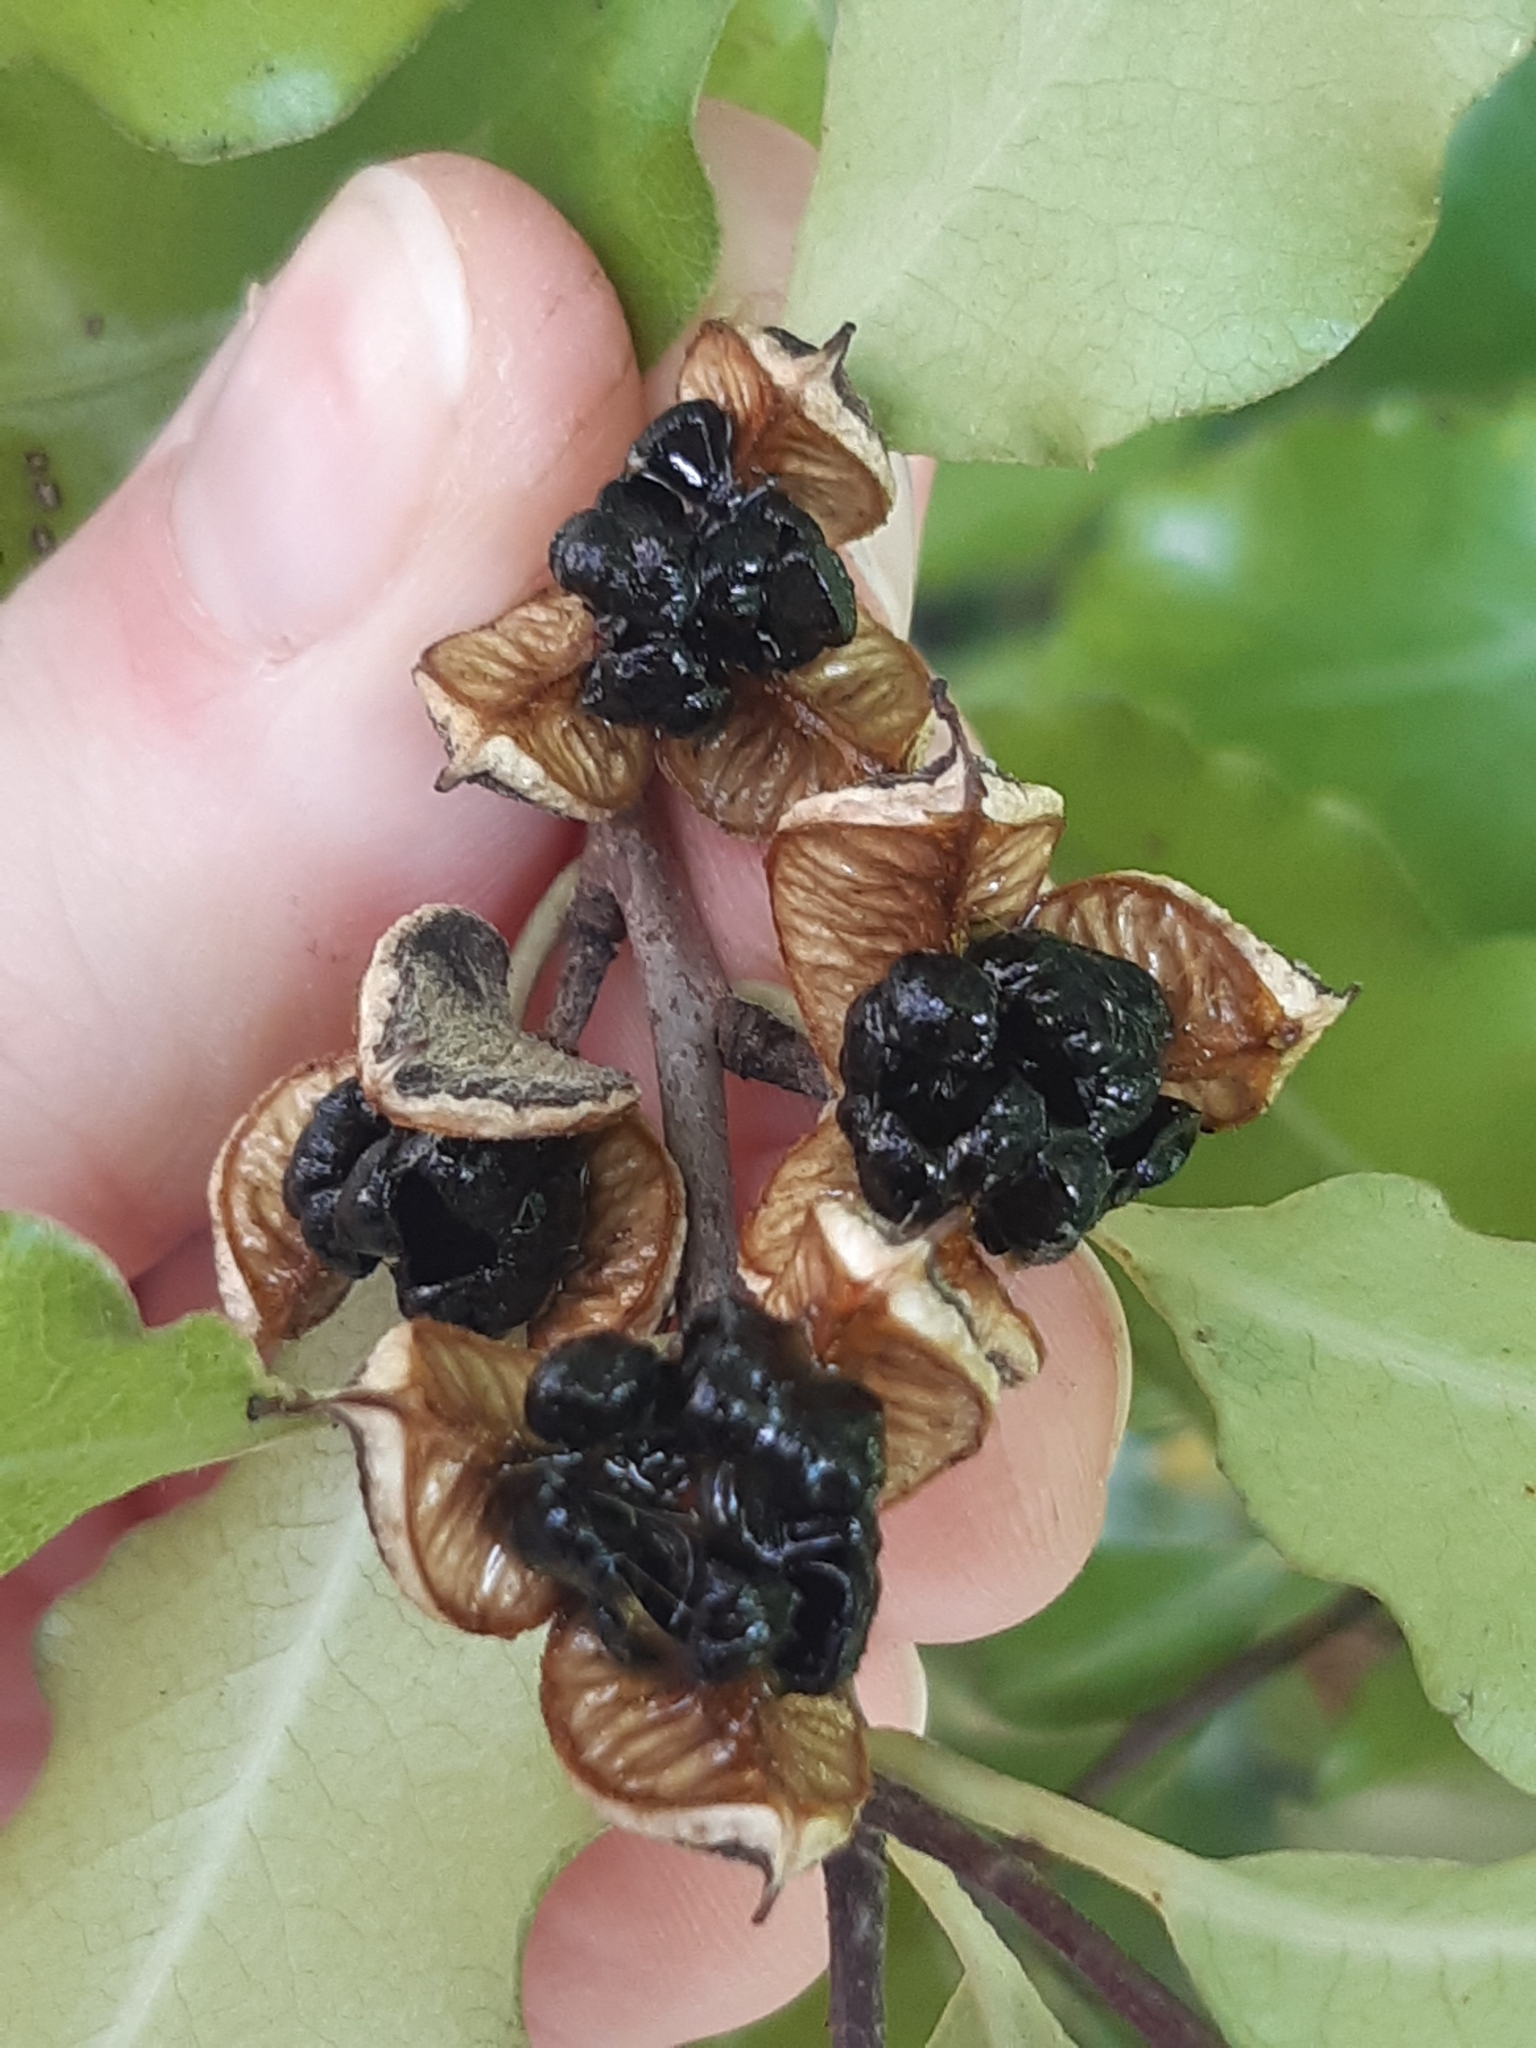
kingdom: Plantae
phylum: Tracheophyta
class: Magnoliopsida
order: Apiales
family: Pittosporaceae
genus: Pittosporum
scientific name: Pittosporum tenuifolium
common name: Kohuhu
